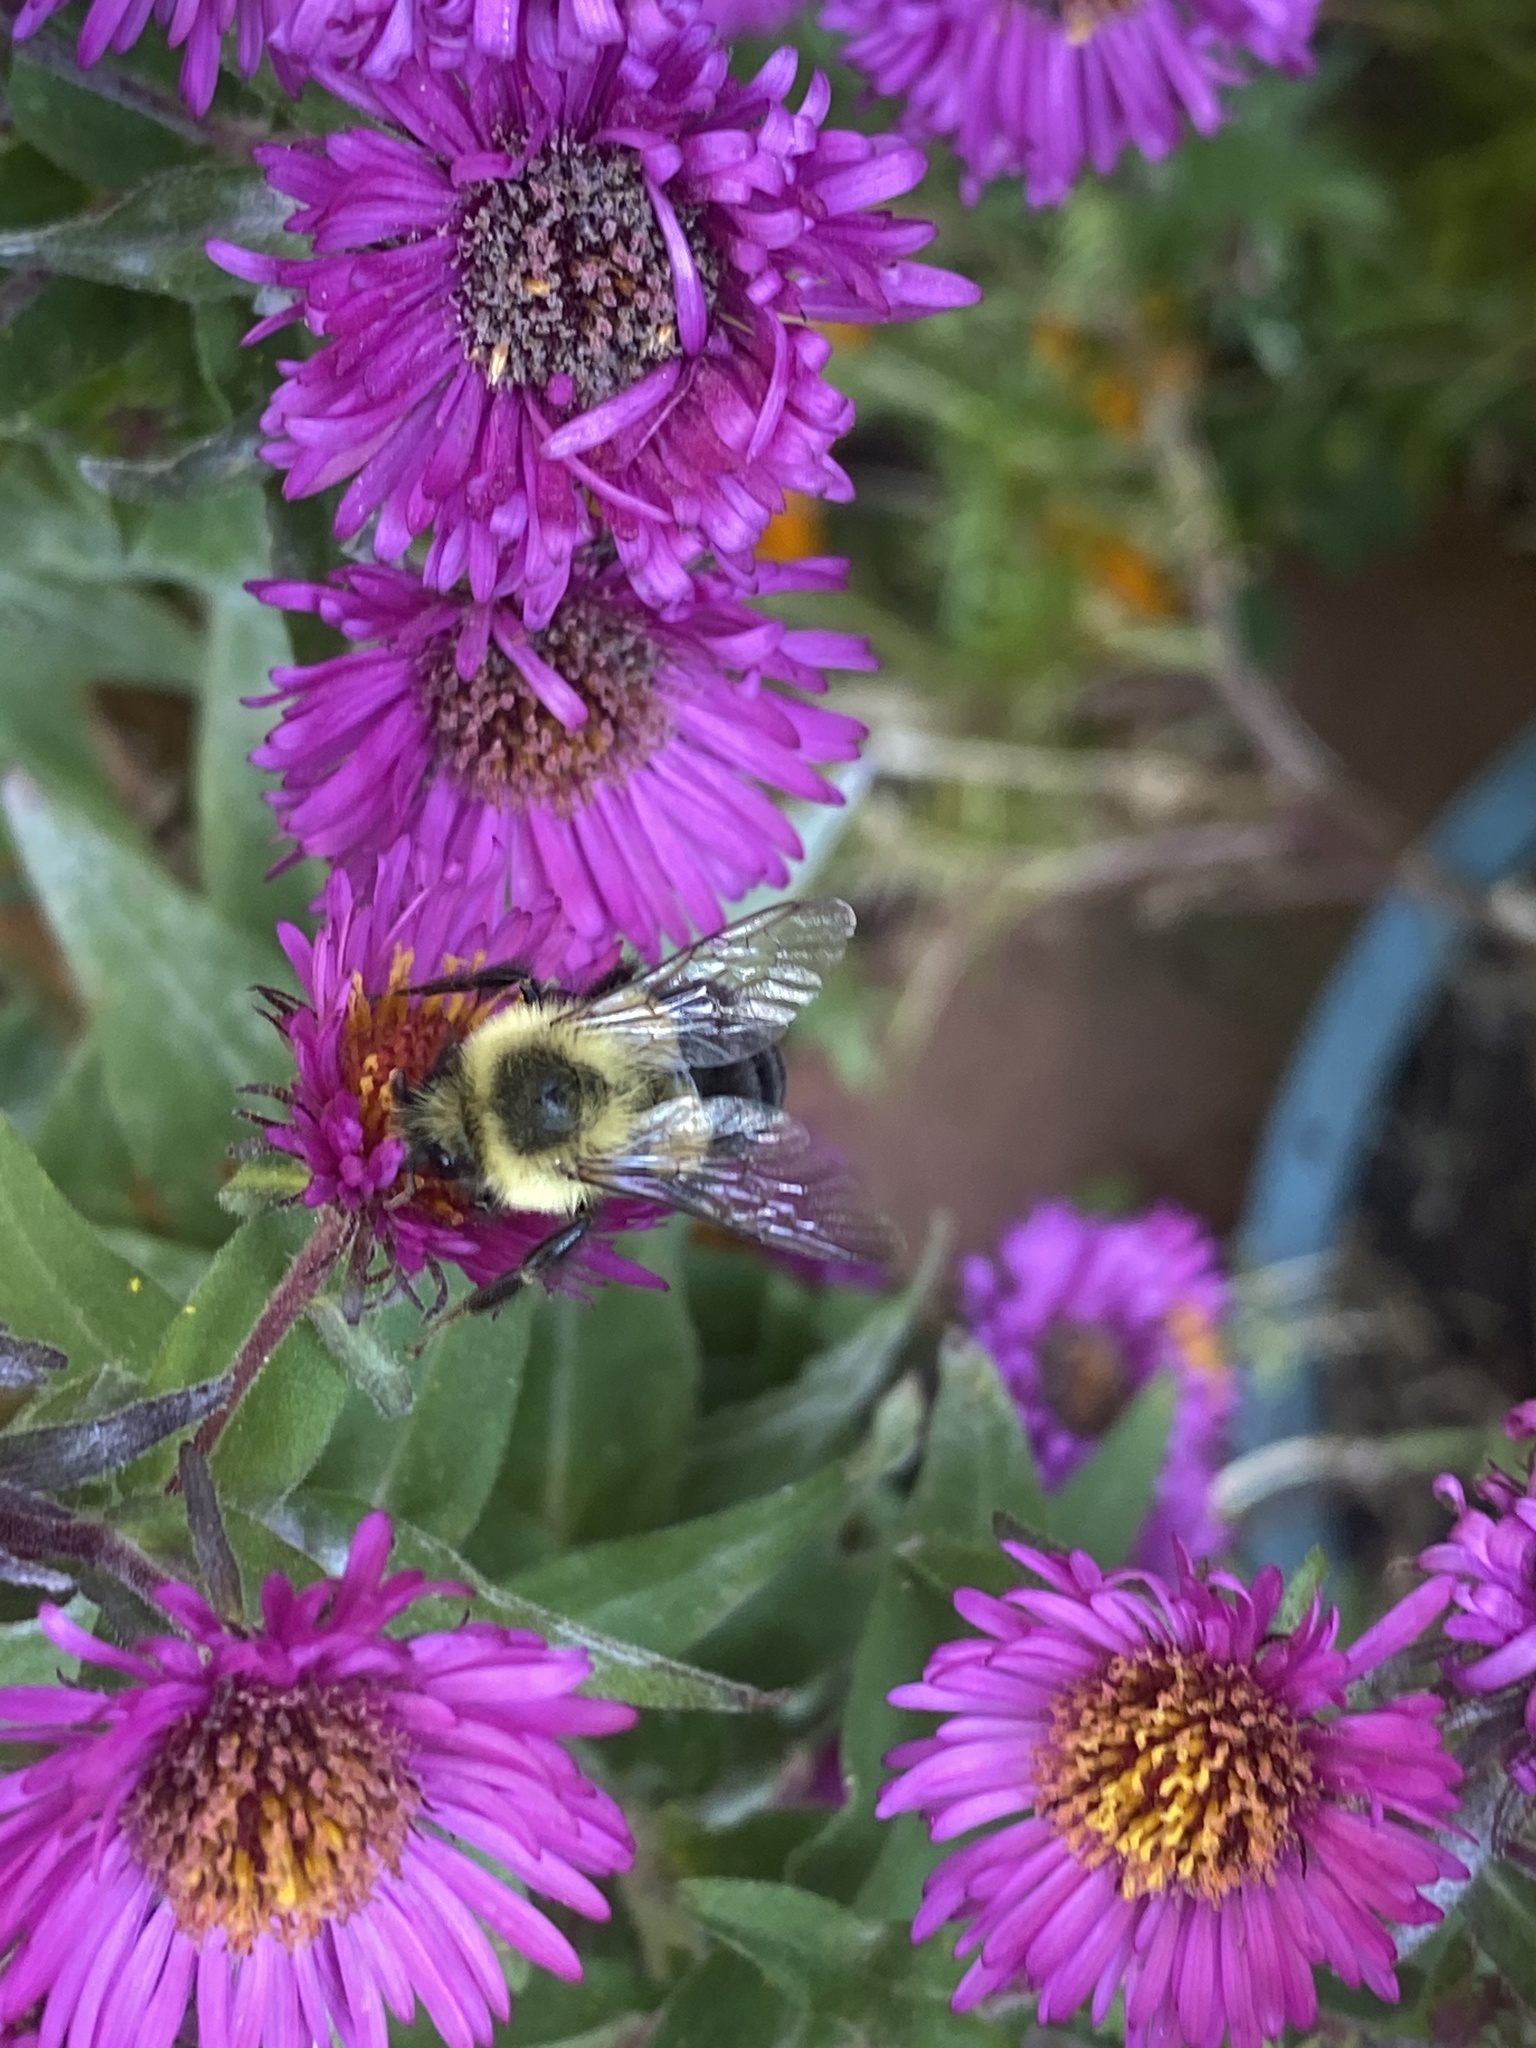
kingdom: Animalia
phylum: Arthropoda
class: Insecta
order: Hymenoptera
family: Apidae
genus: Bombus
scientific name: Bombus impatiens
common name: Common eastern bumble bee
